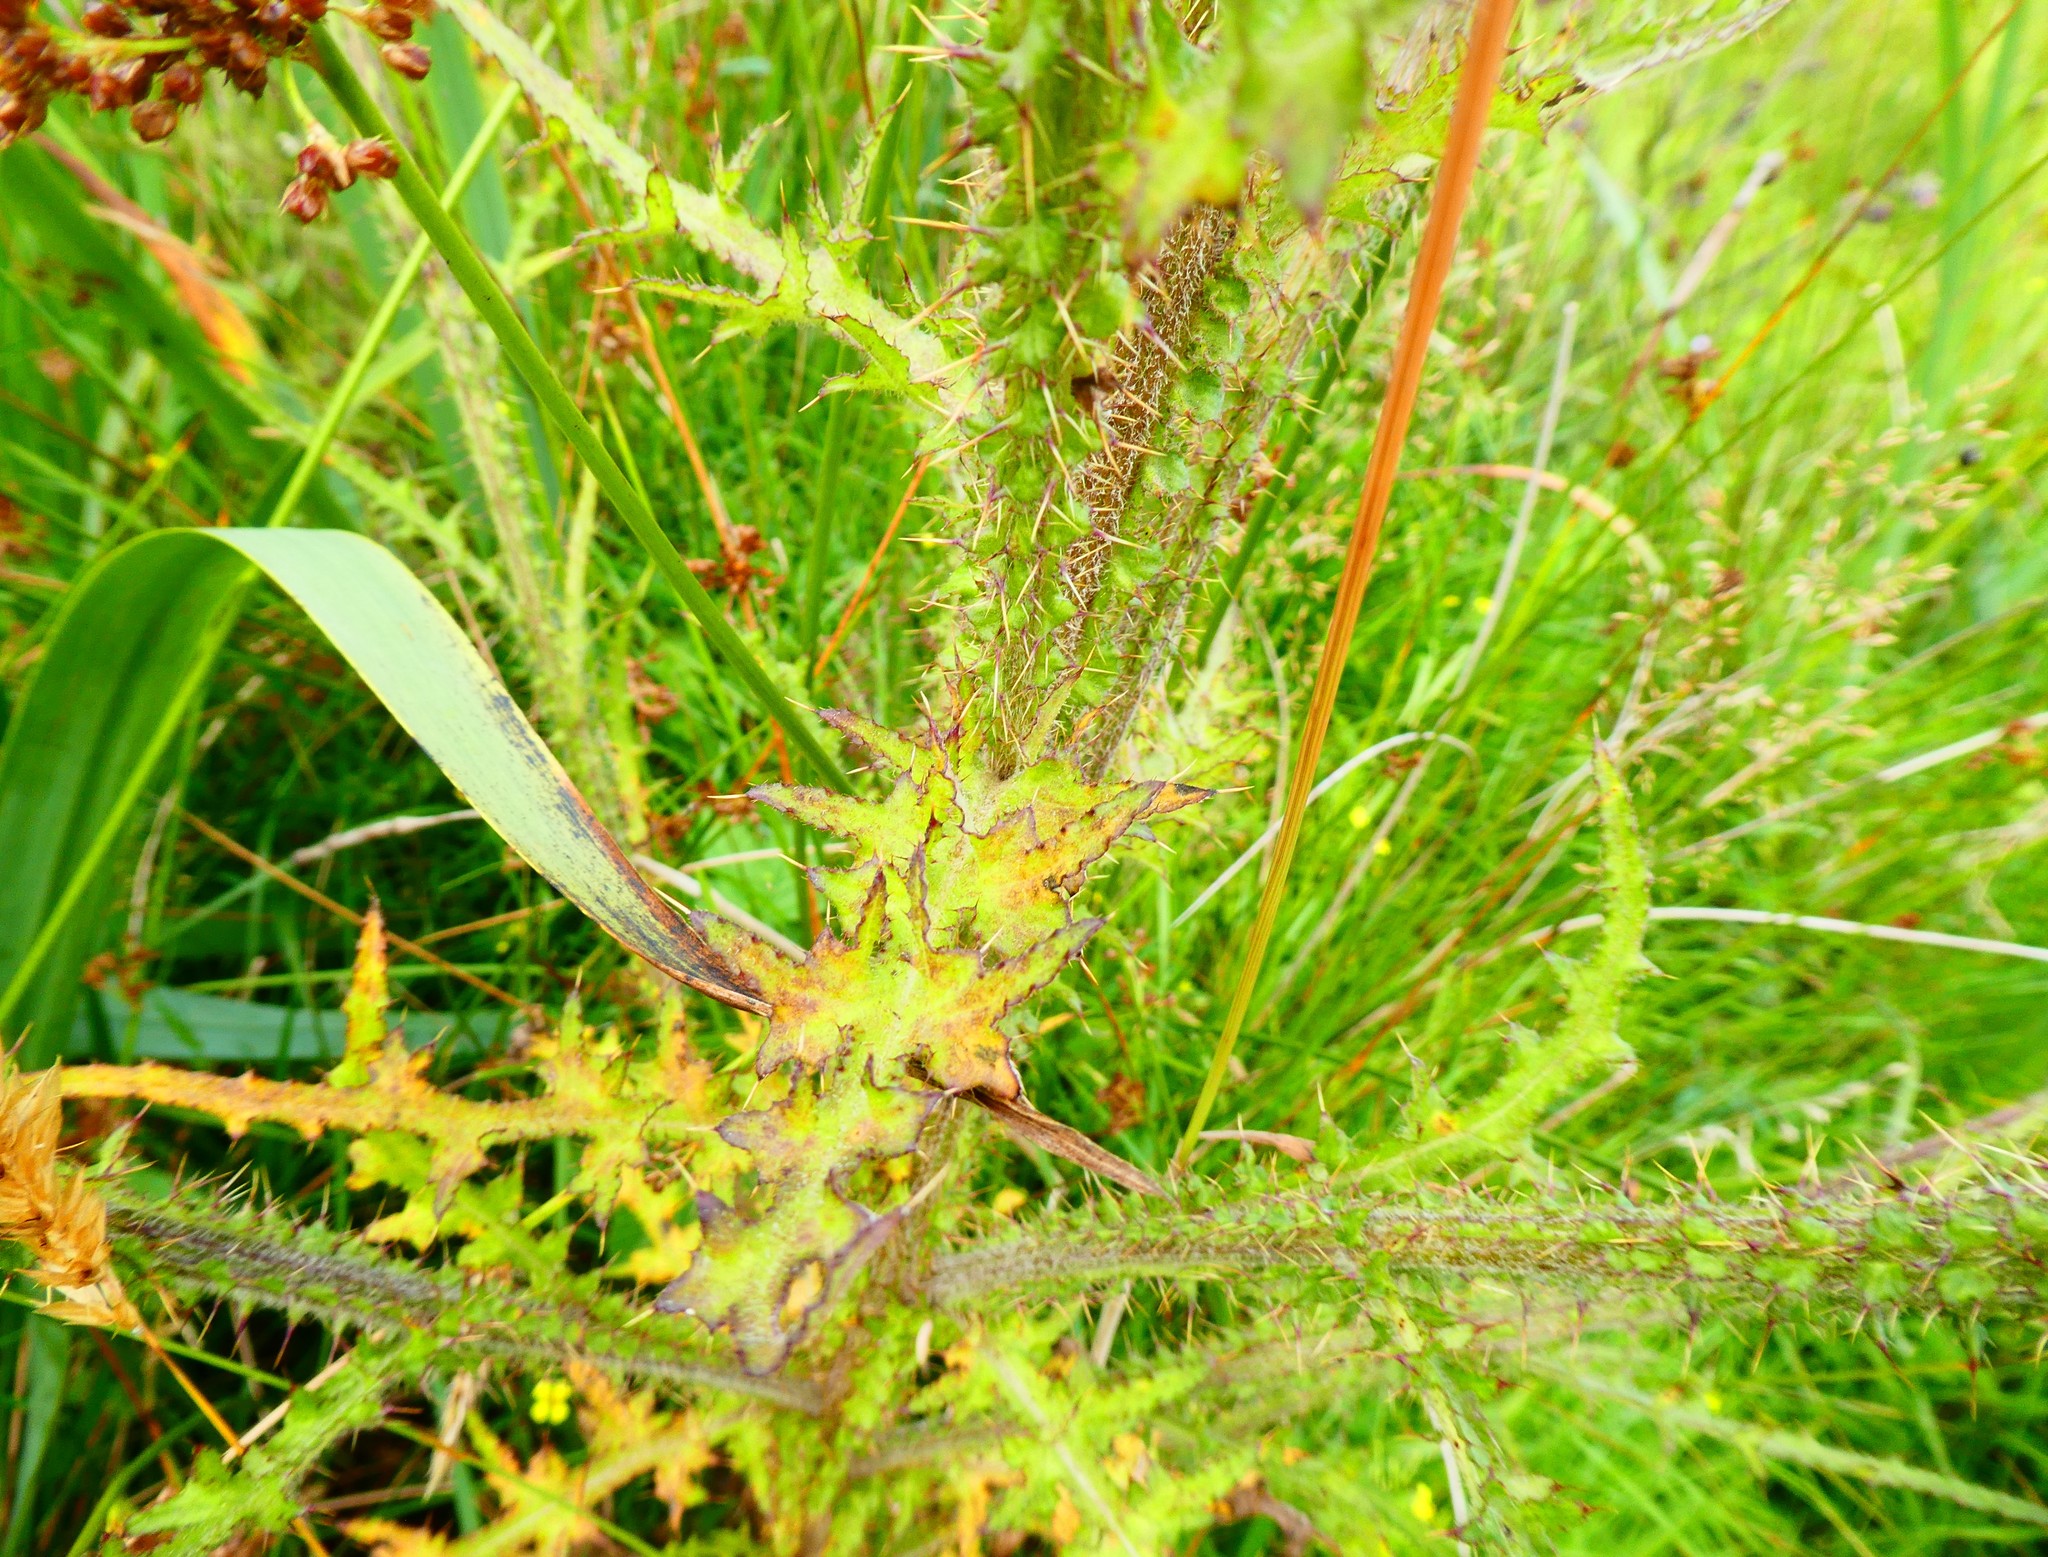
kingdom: Plantae
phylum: Tracheophyta
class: Magnoliopsida
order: Asterales
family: Asteraceae
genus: Cirsium
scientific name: Cirsium palustre
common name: Marsh thistle
